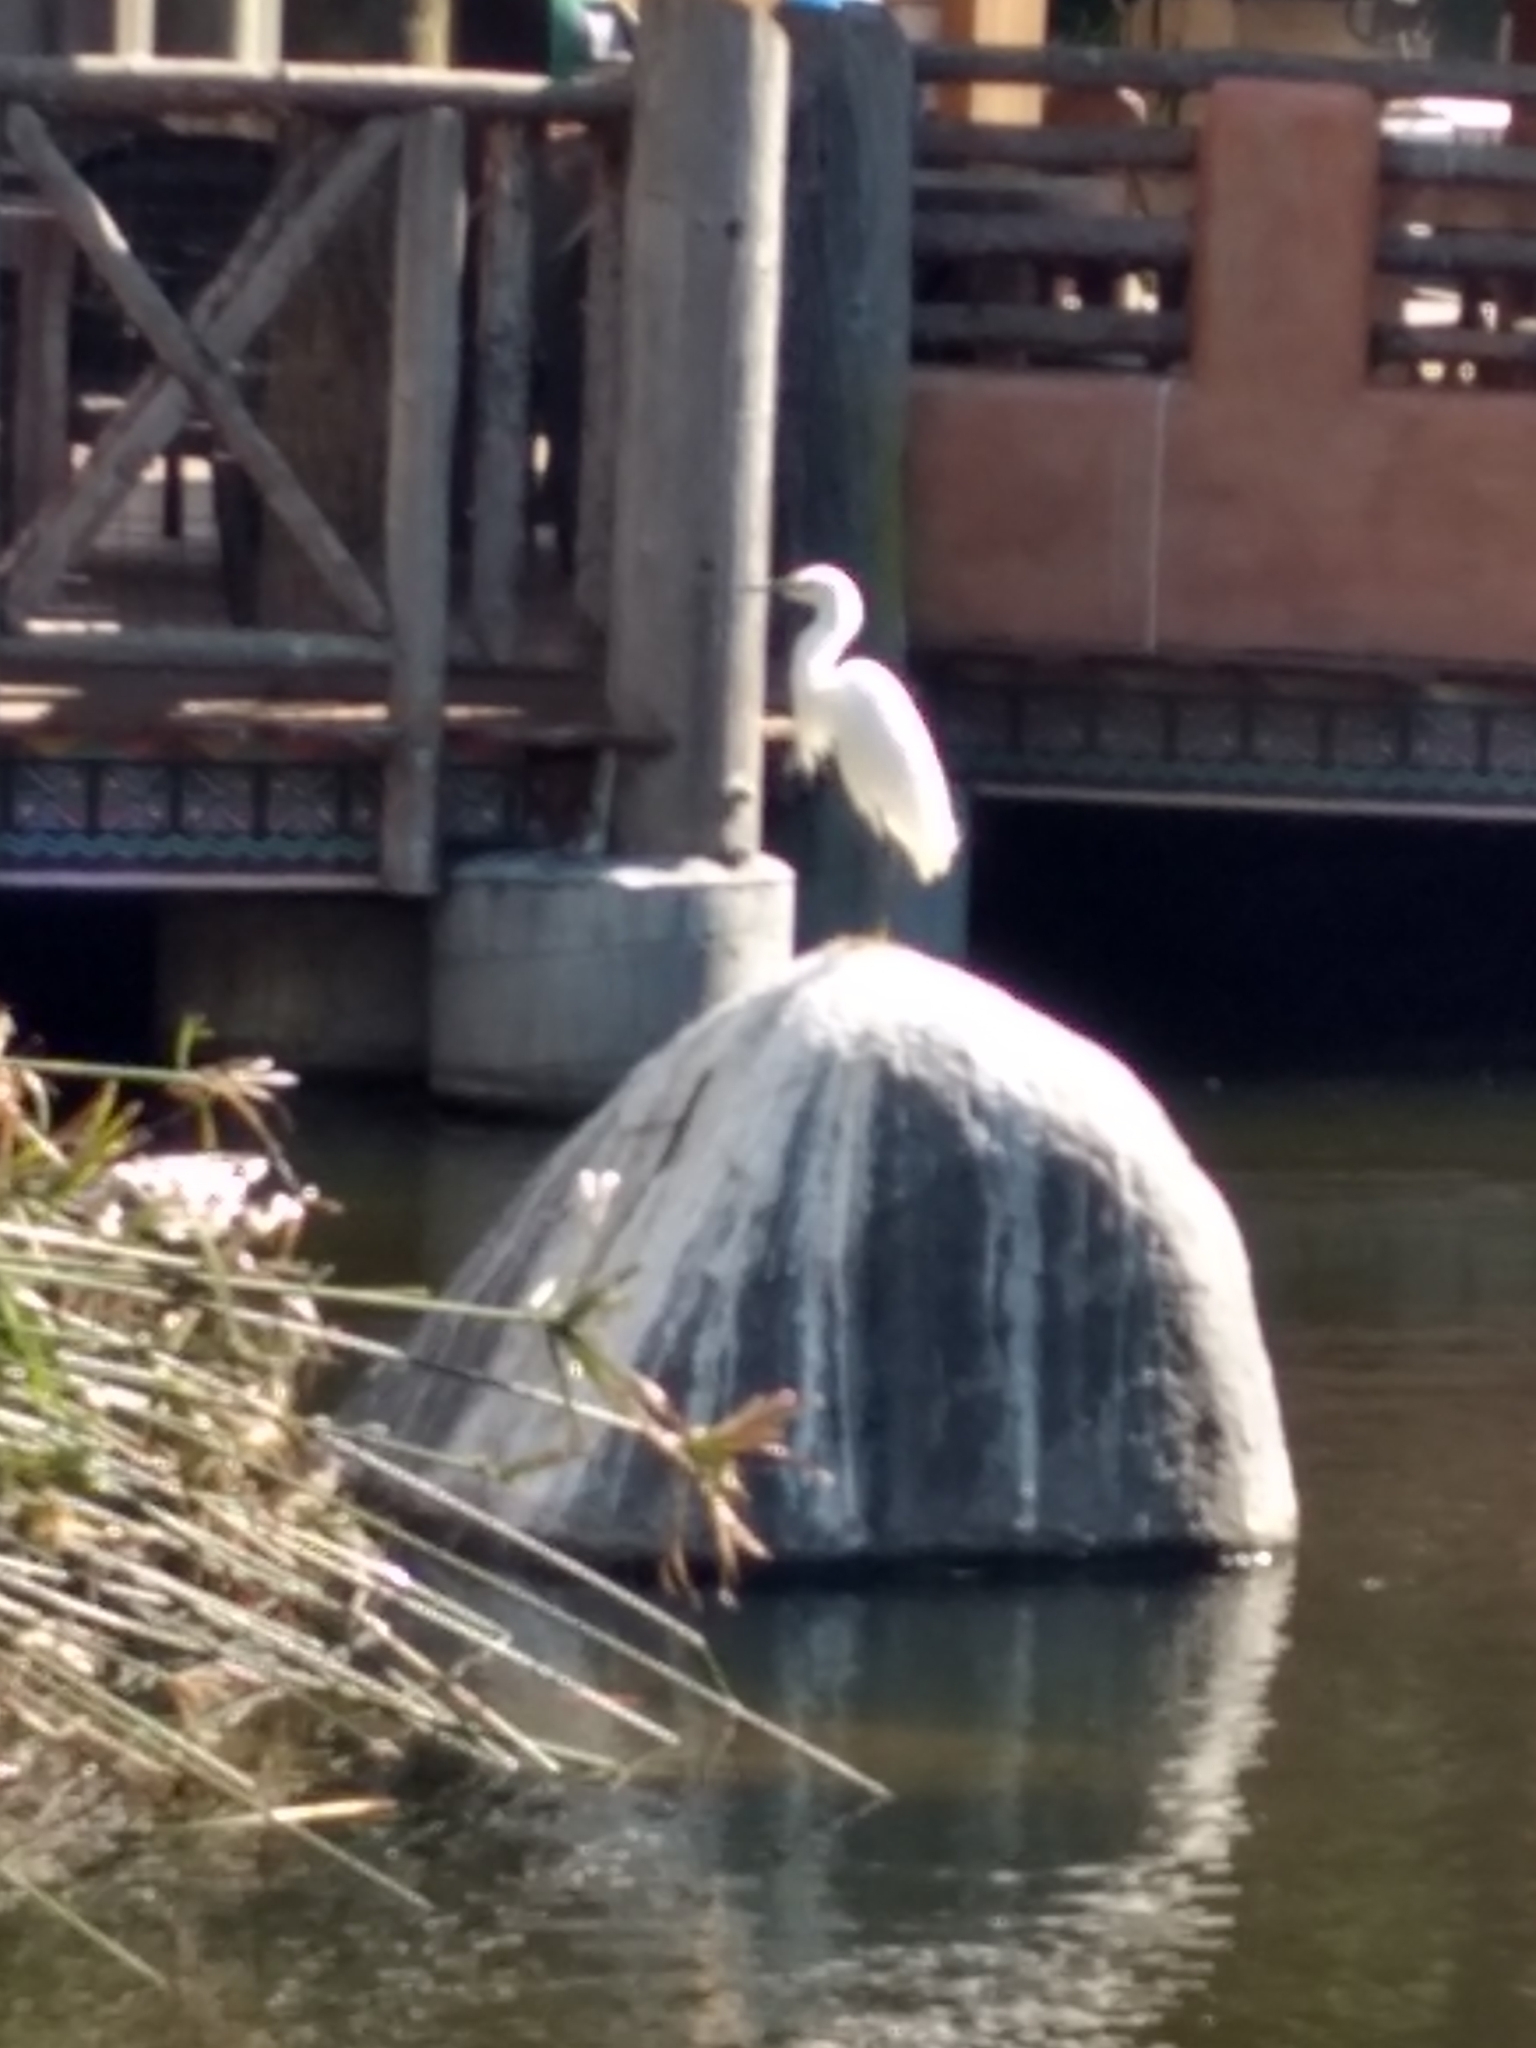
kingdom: Animalia
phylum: Chordata
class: Aves
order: Pelecaniformes
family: Ardeidae
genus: Egretta
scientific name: Egretta thula
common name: Snowy egret
